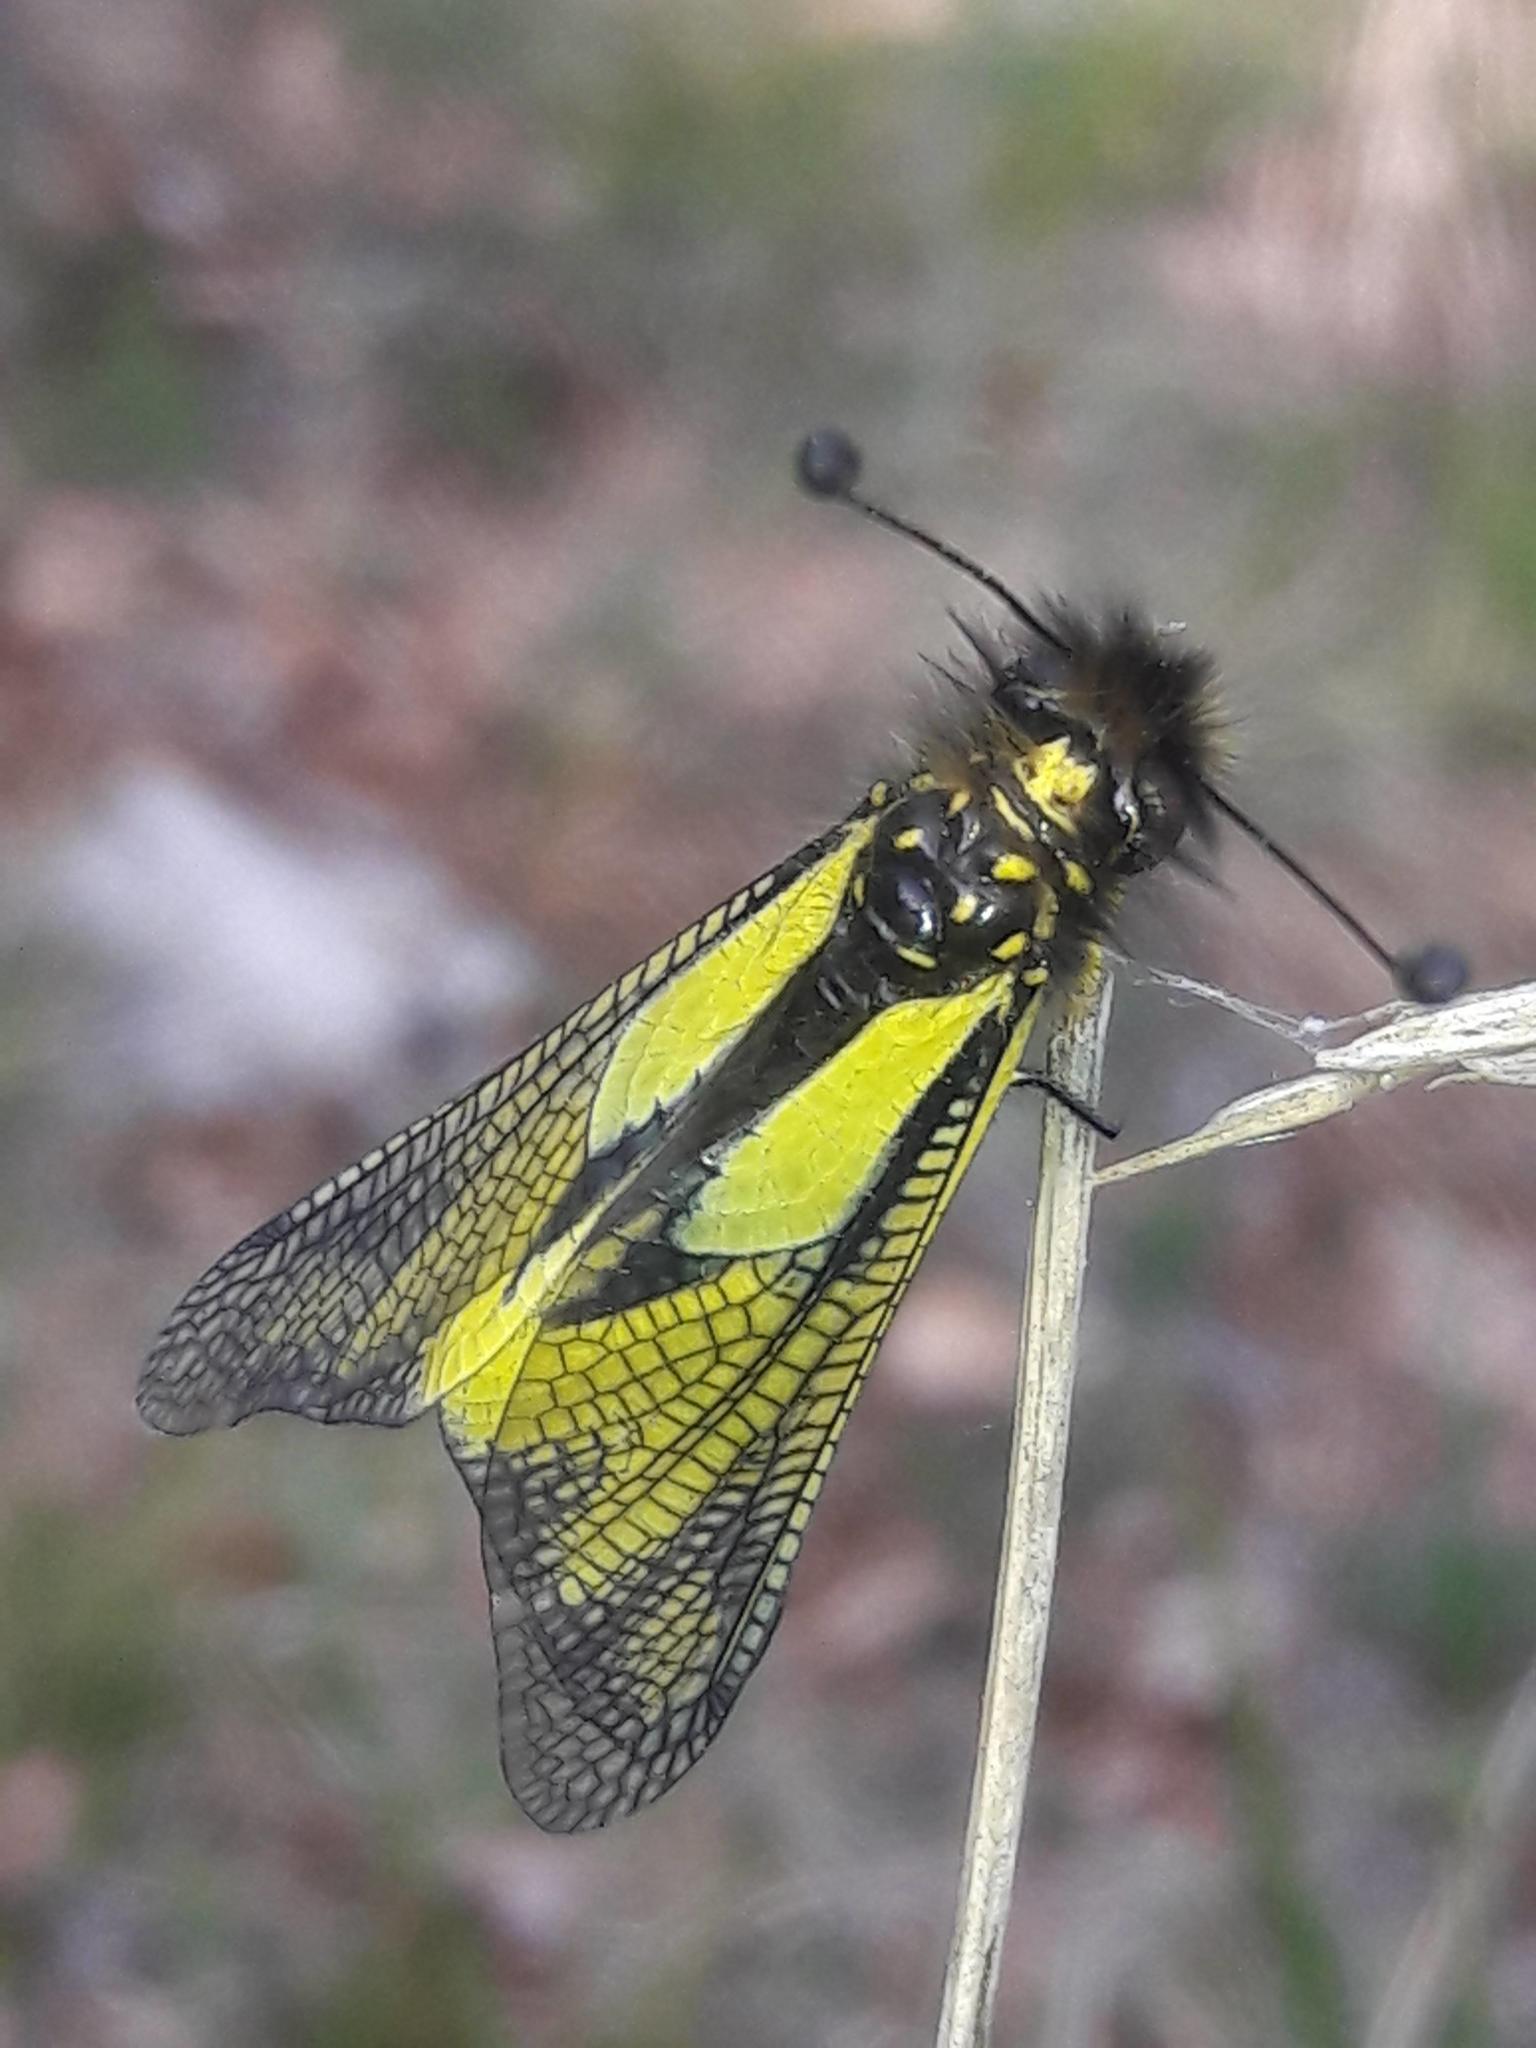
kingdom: Animalia
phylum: Arthropoda
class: Insecta
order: Neuroptera
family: Ascalaphidae
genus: Libelloides
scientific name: Libelloides coccajus
